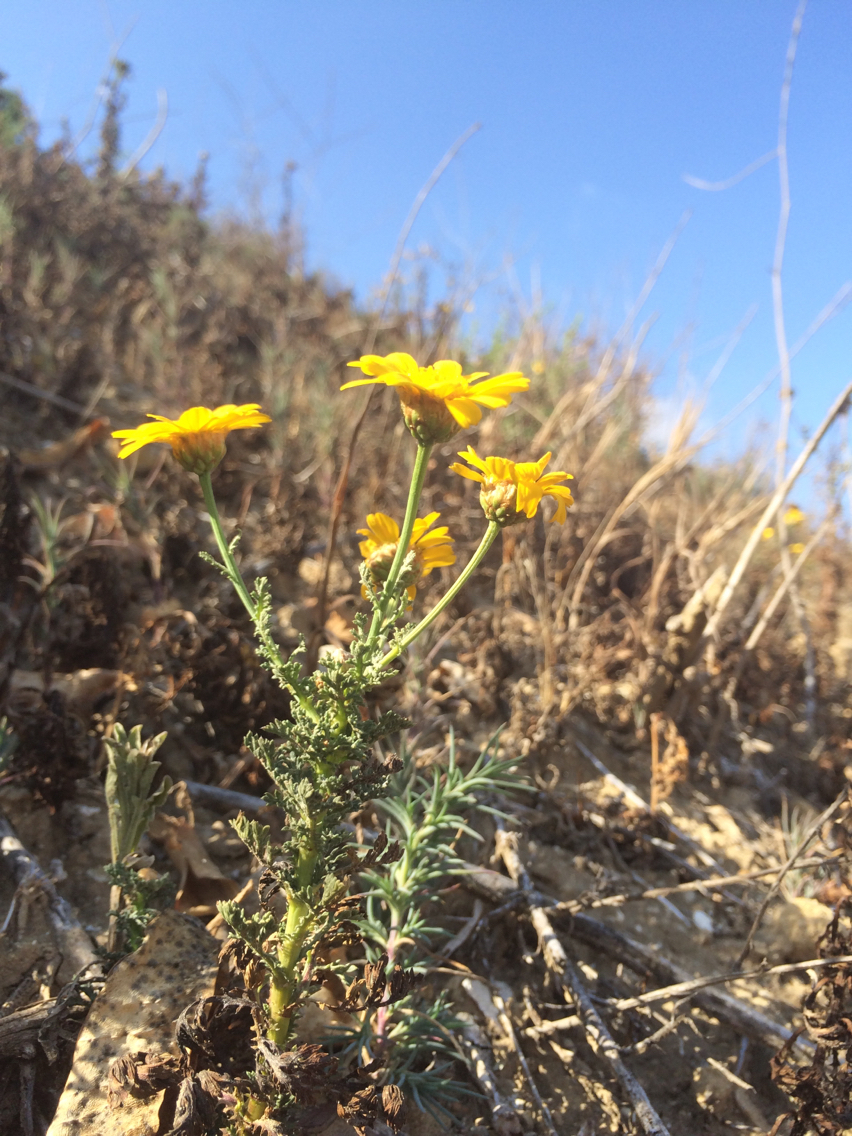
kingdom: Plantae
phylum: Tracheophyta
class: Magnoliopsida
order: Asterales
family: Asteraceae
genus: Glebionis
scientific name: Glebionis coronaria
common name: Crowndaisy
